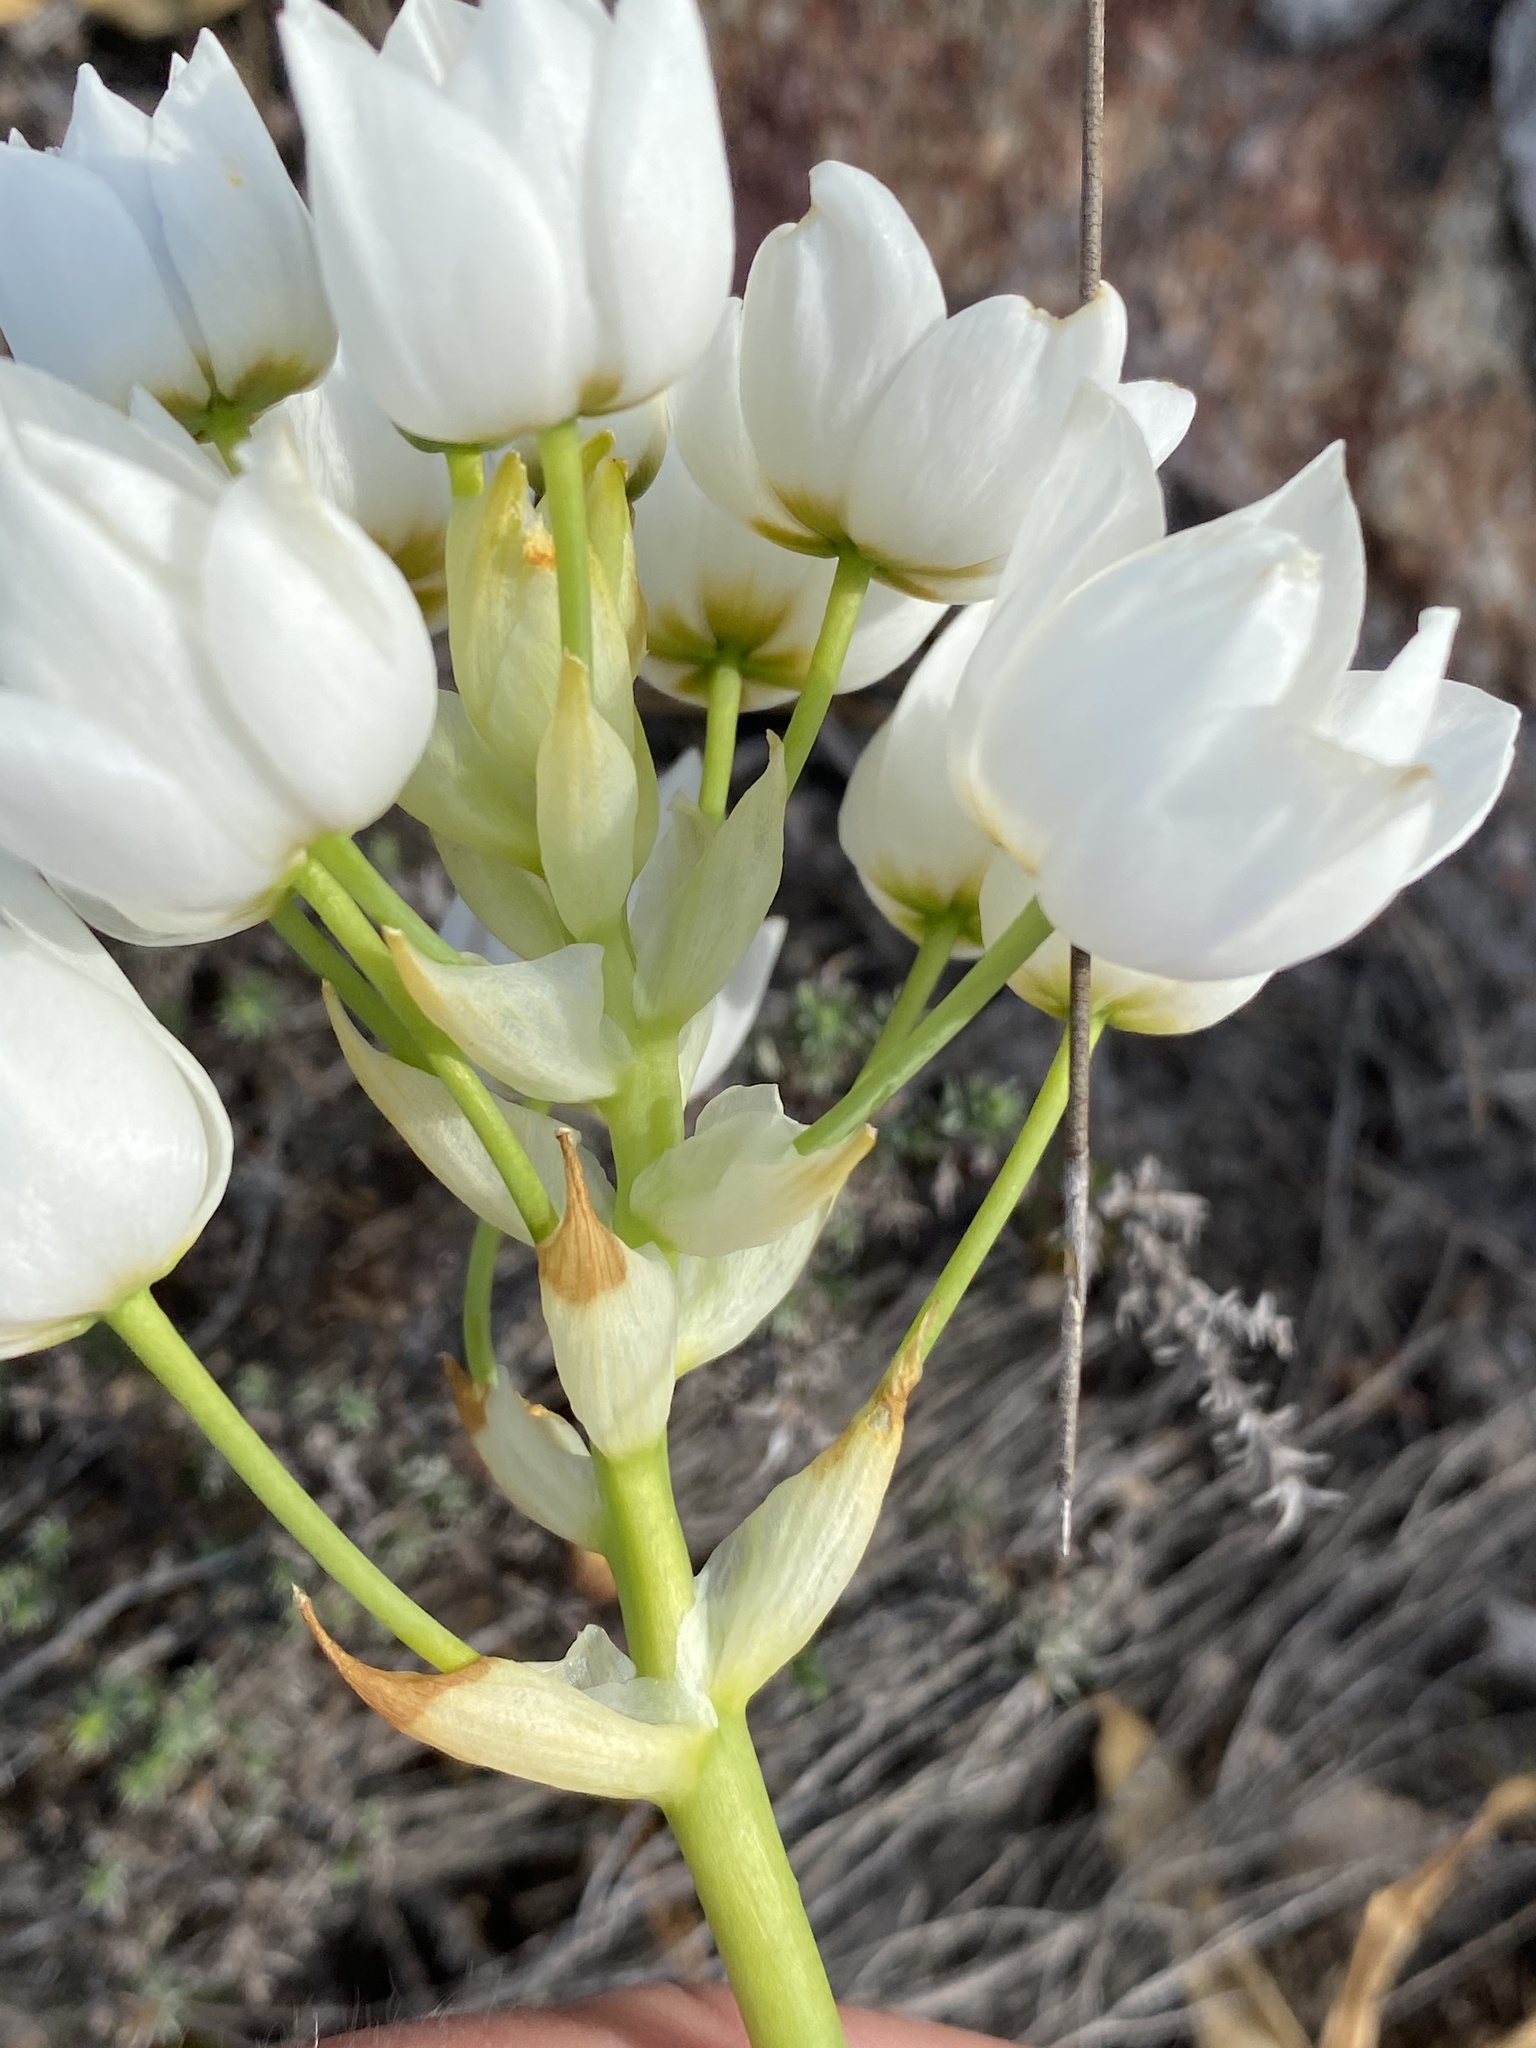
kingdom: Plantae
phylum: Tracheophyta
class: Liliopsida
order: Asparagales
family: Asparagaceae
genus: Ornithogalum
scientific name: Ornithogalum thyrsoides
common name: Chincherinchee
